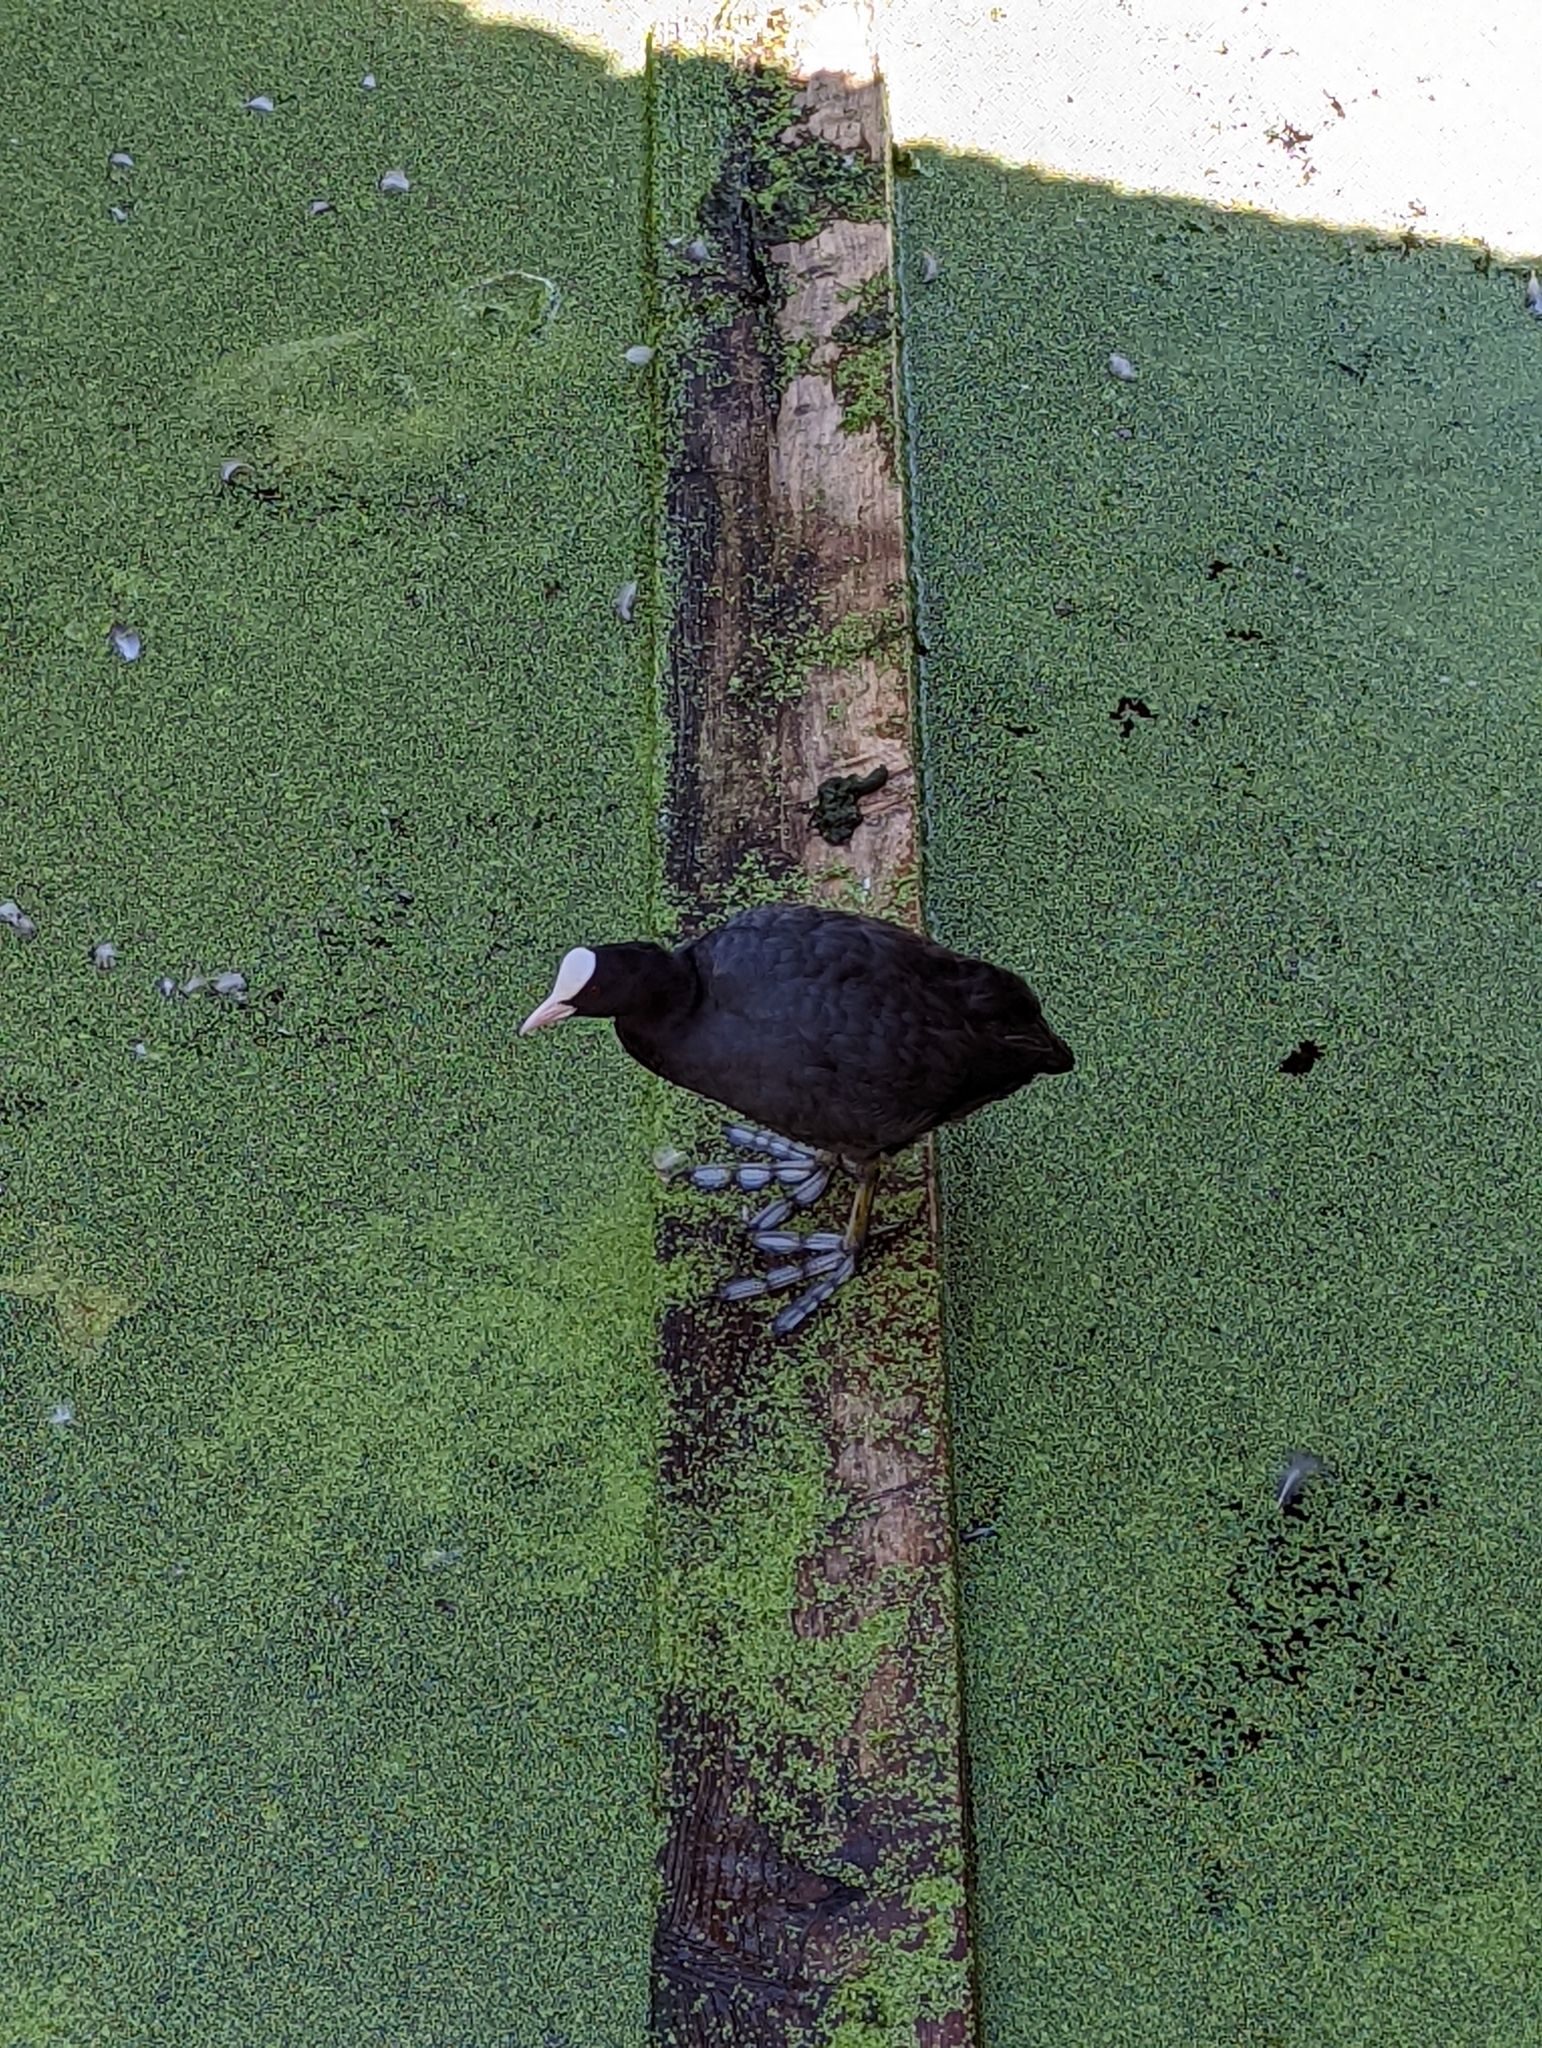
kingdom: Animalia
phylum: Chordata
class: Aves
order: Gruiformes
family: Rallidae
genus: Fulica
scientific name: Fulica atra
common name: Eurasian coot
